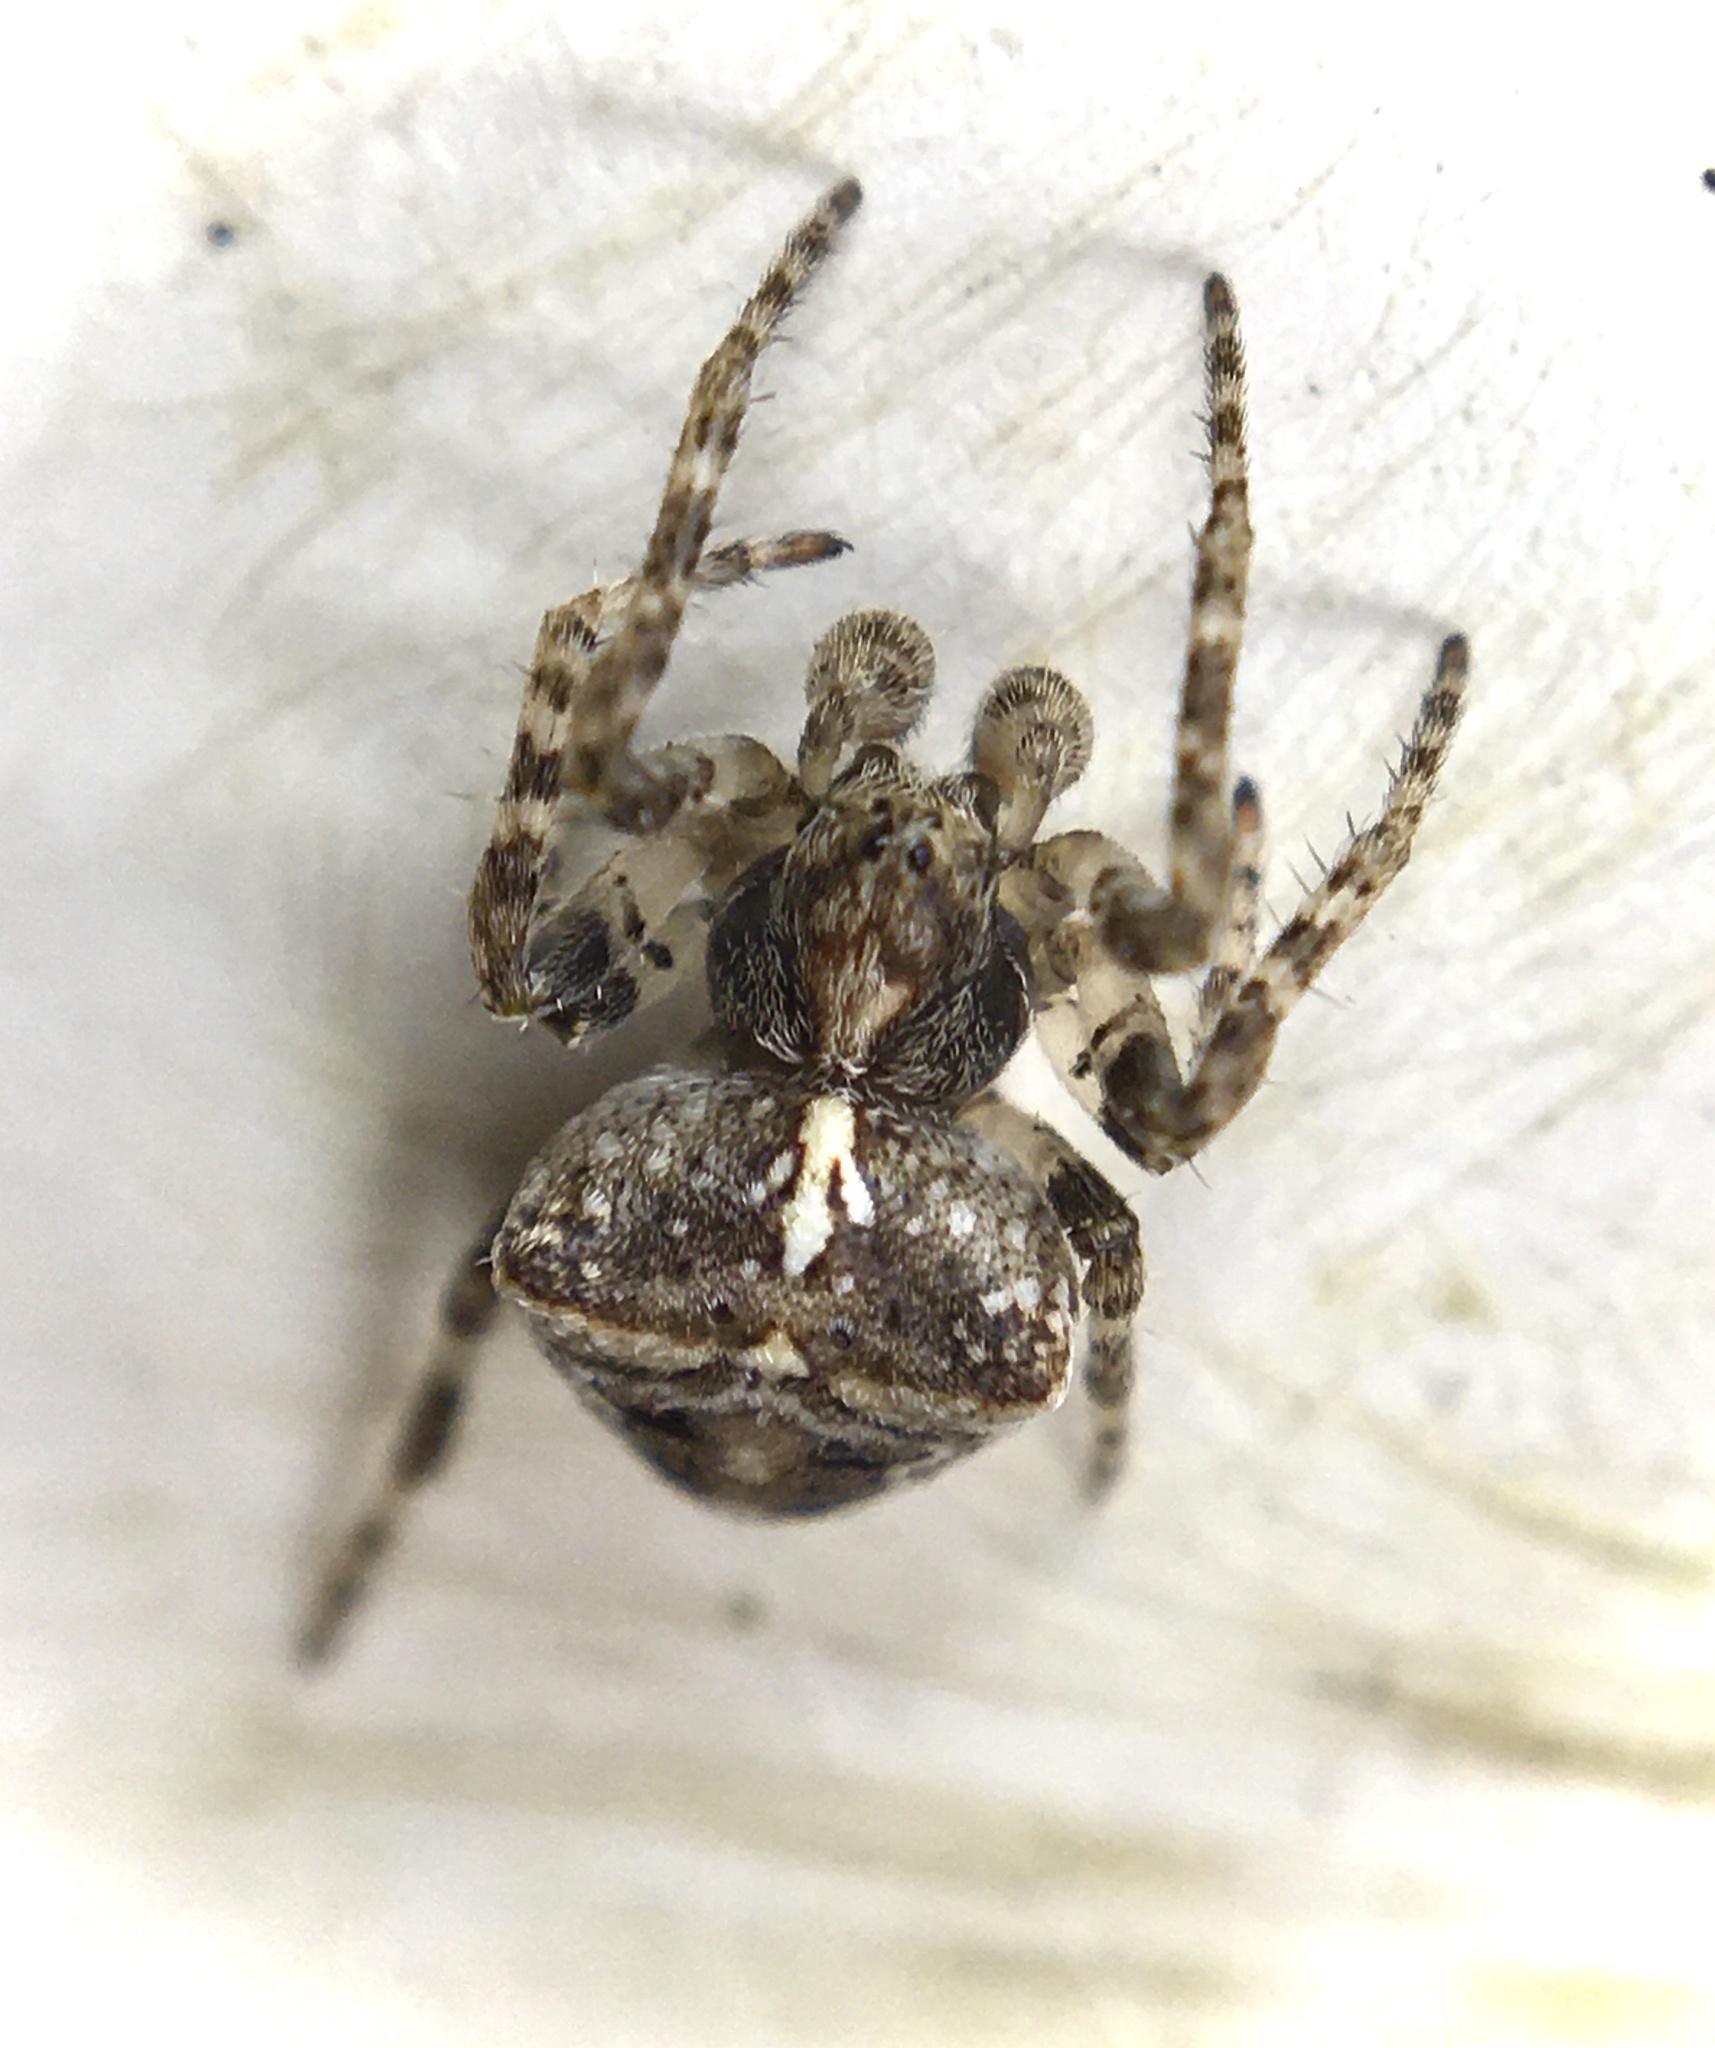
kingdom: Animalia
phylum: Arthropoda
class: Arachnida
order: Araneae
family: Araneidae
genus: Gibbaranea
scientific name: Gibbaranea bituberculata
